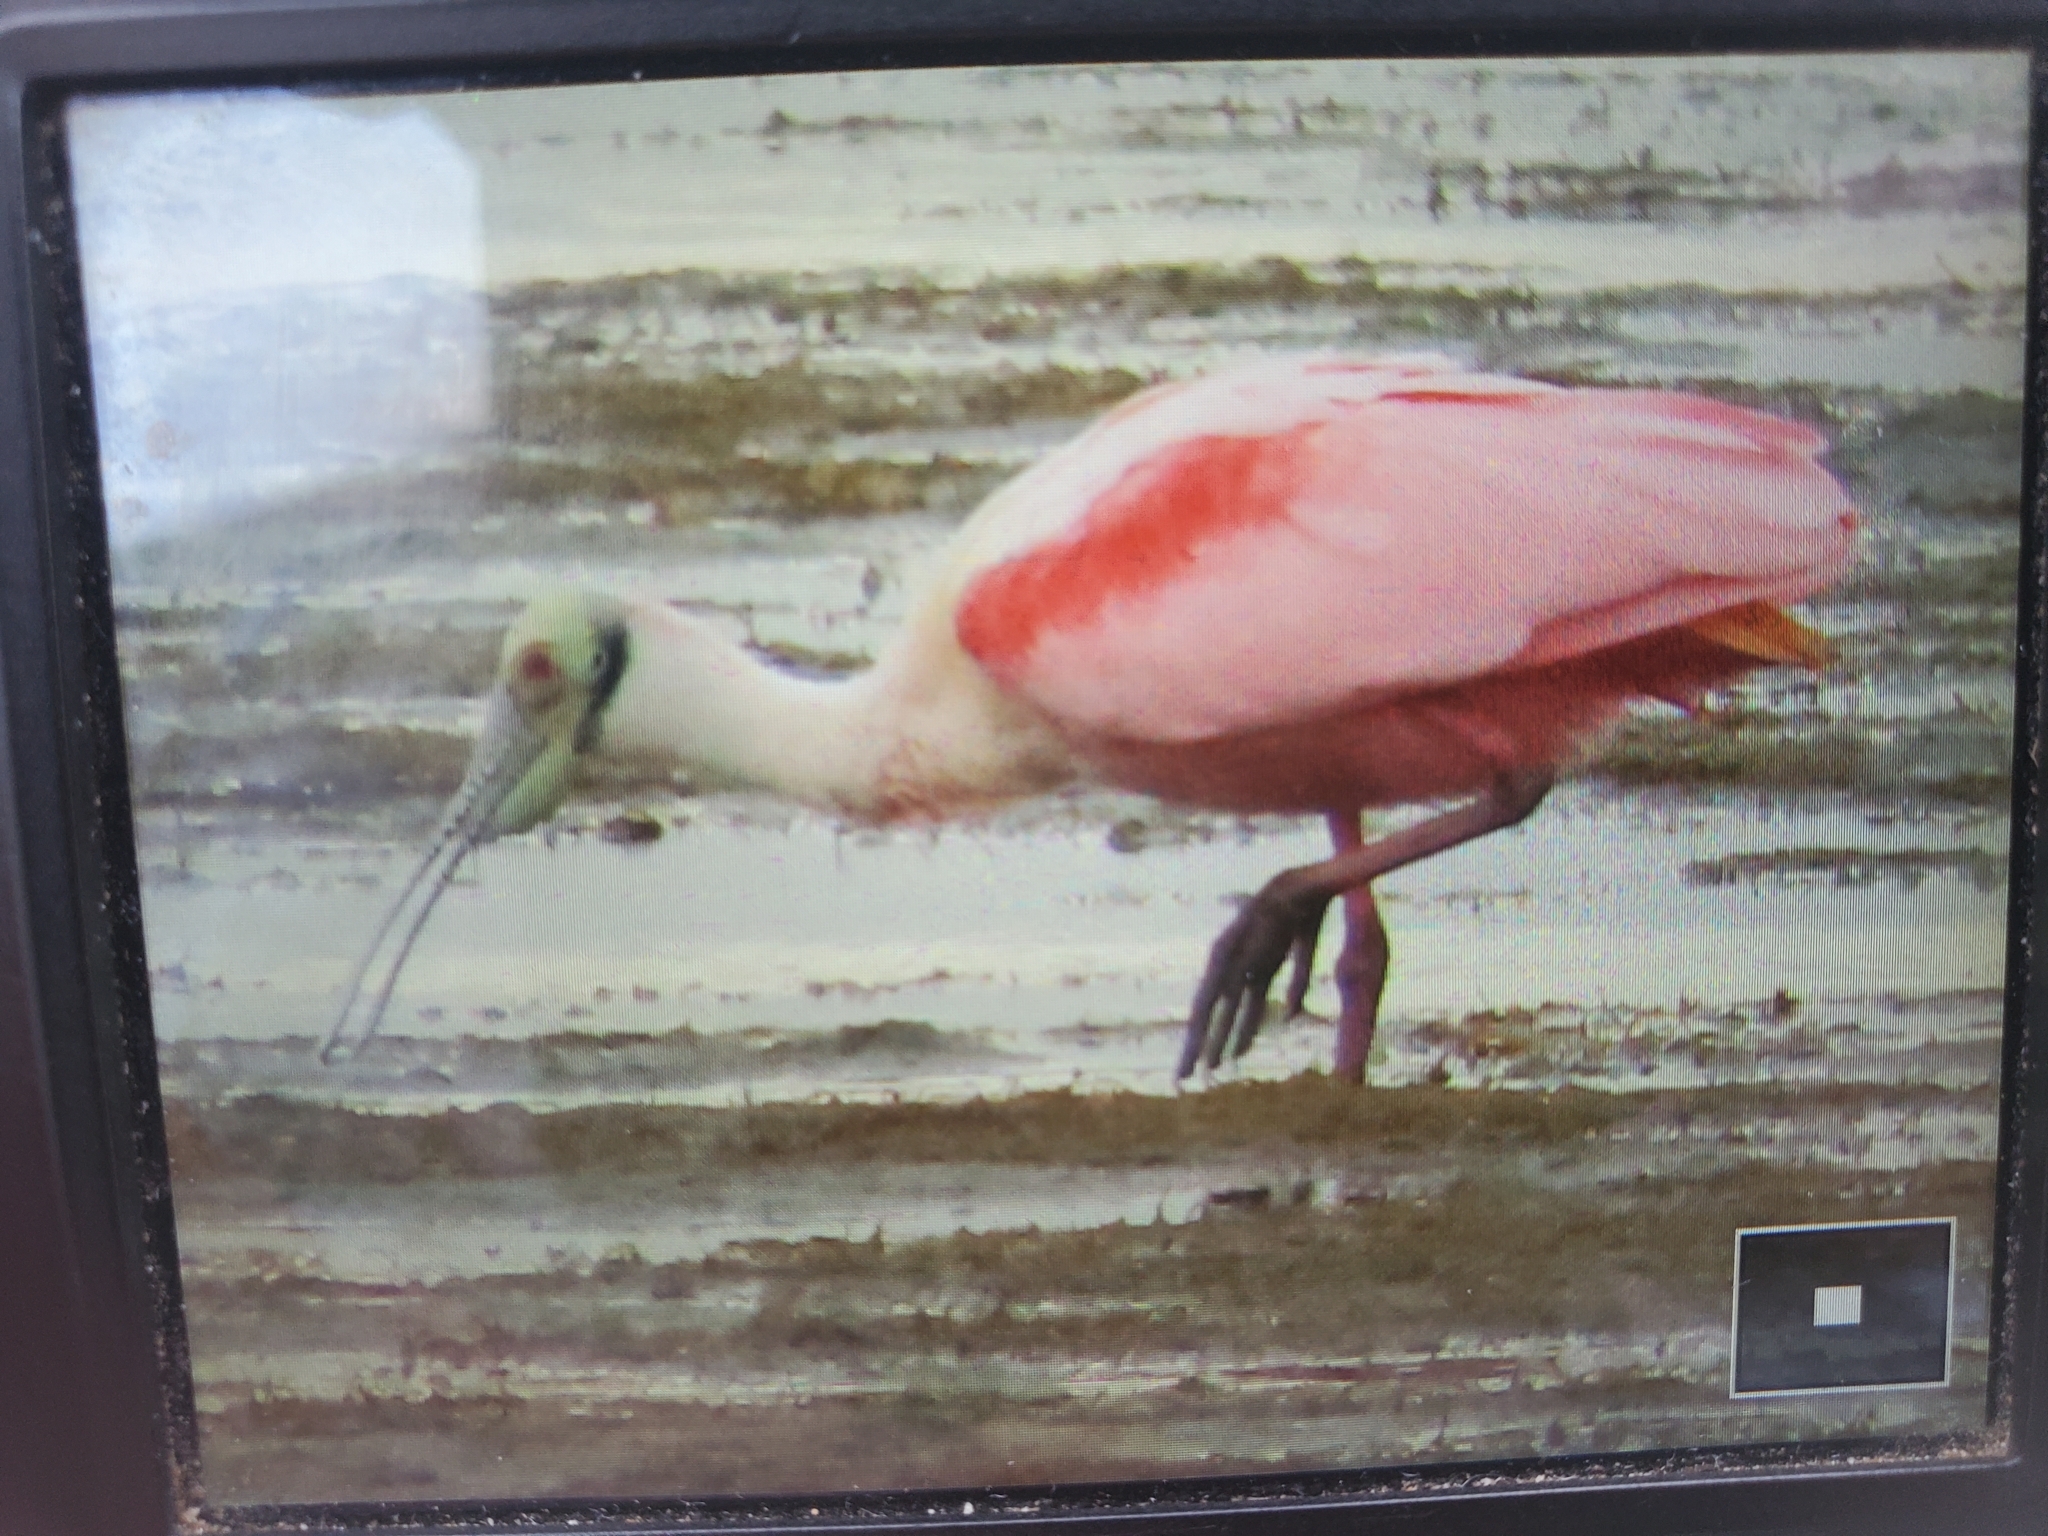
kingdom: Animalia
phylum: Chordata
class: Aves
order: Pelecaniformes
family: Threskiornithidae
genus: Platalea
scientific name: Platalea ajaja
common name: Roseate spoonbill
